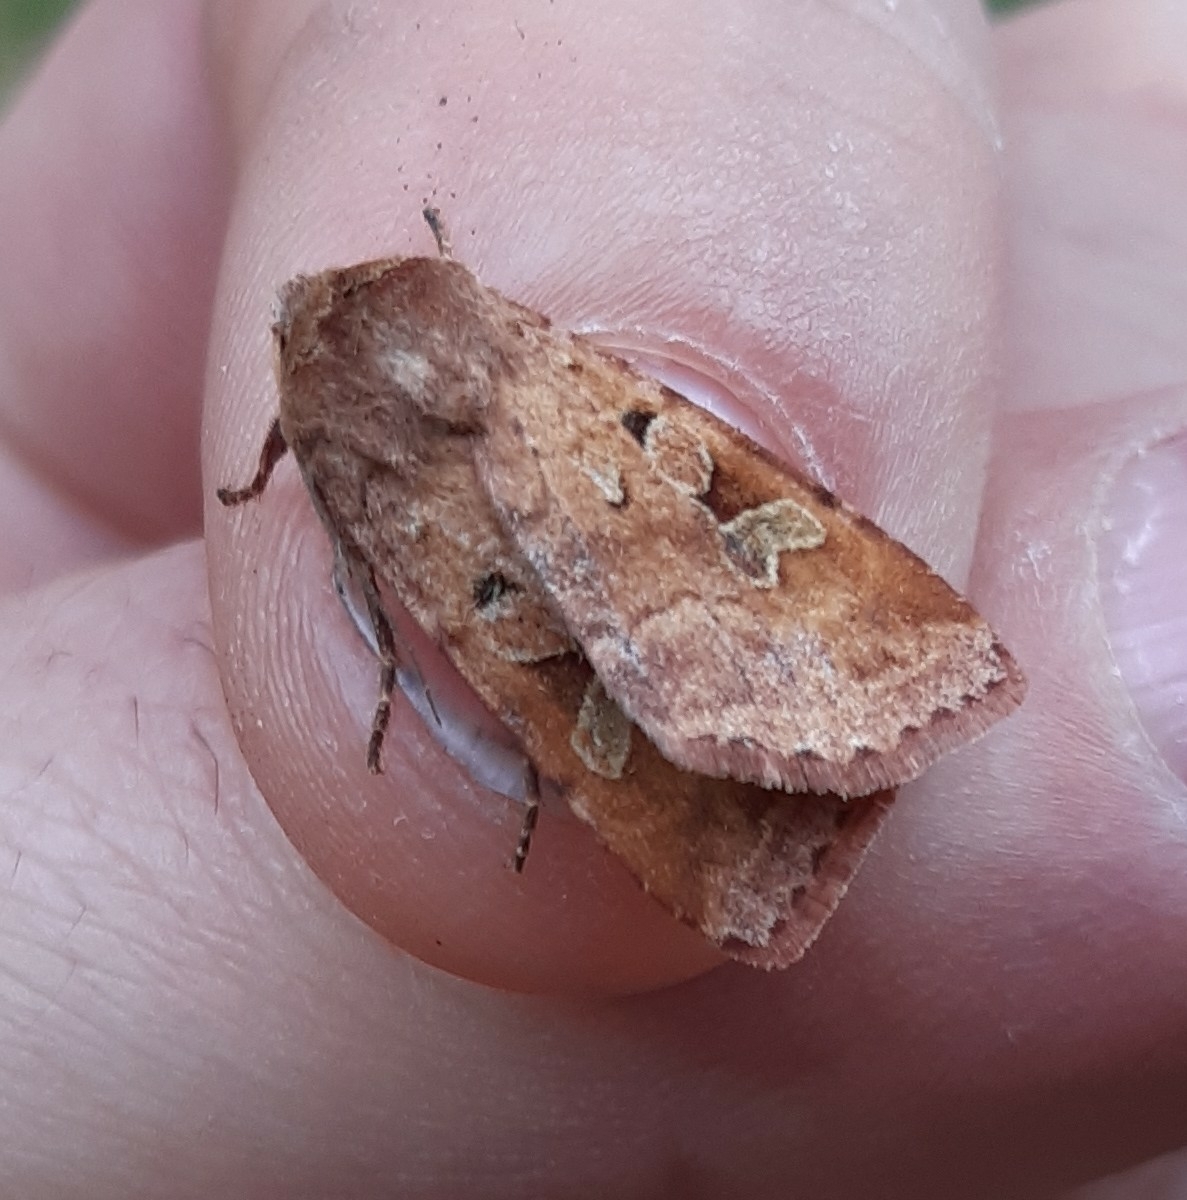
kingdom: Animalia
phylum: Arthropoda
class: Insecta
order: Lepidoptera
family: Noctuidae
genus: Diarsia
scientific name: Diarsia mendica
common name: Ingrailed clay
